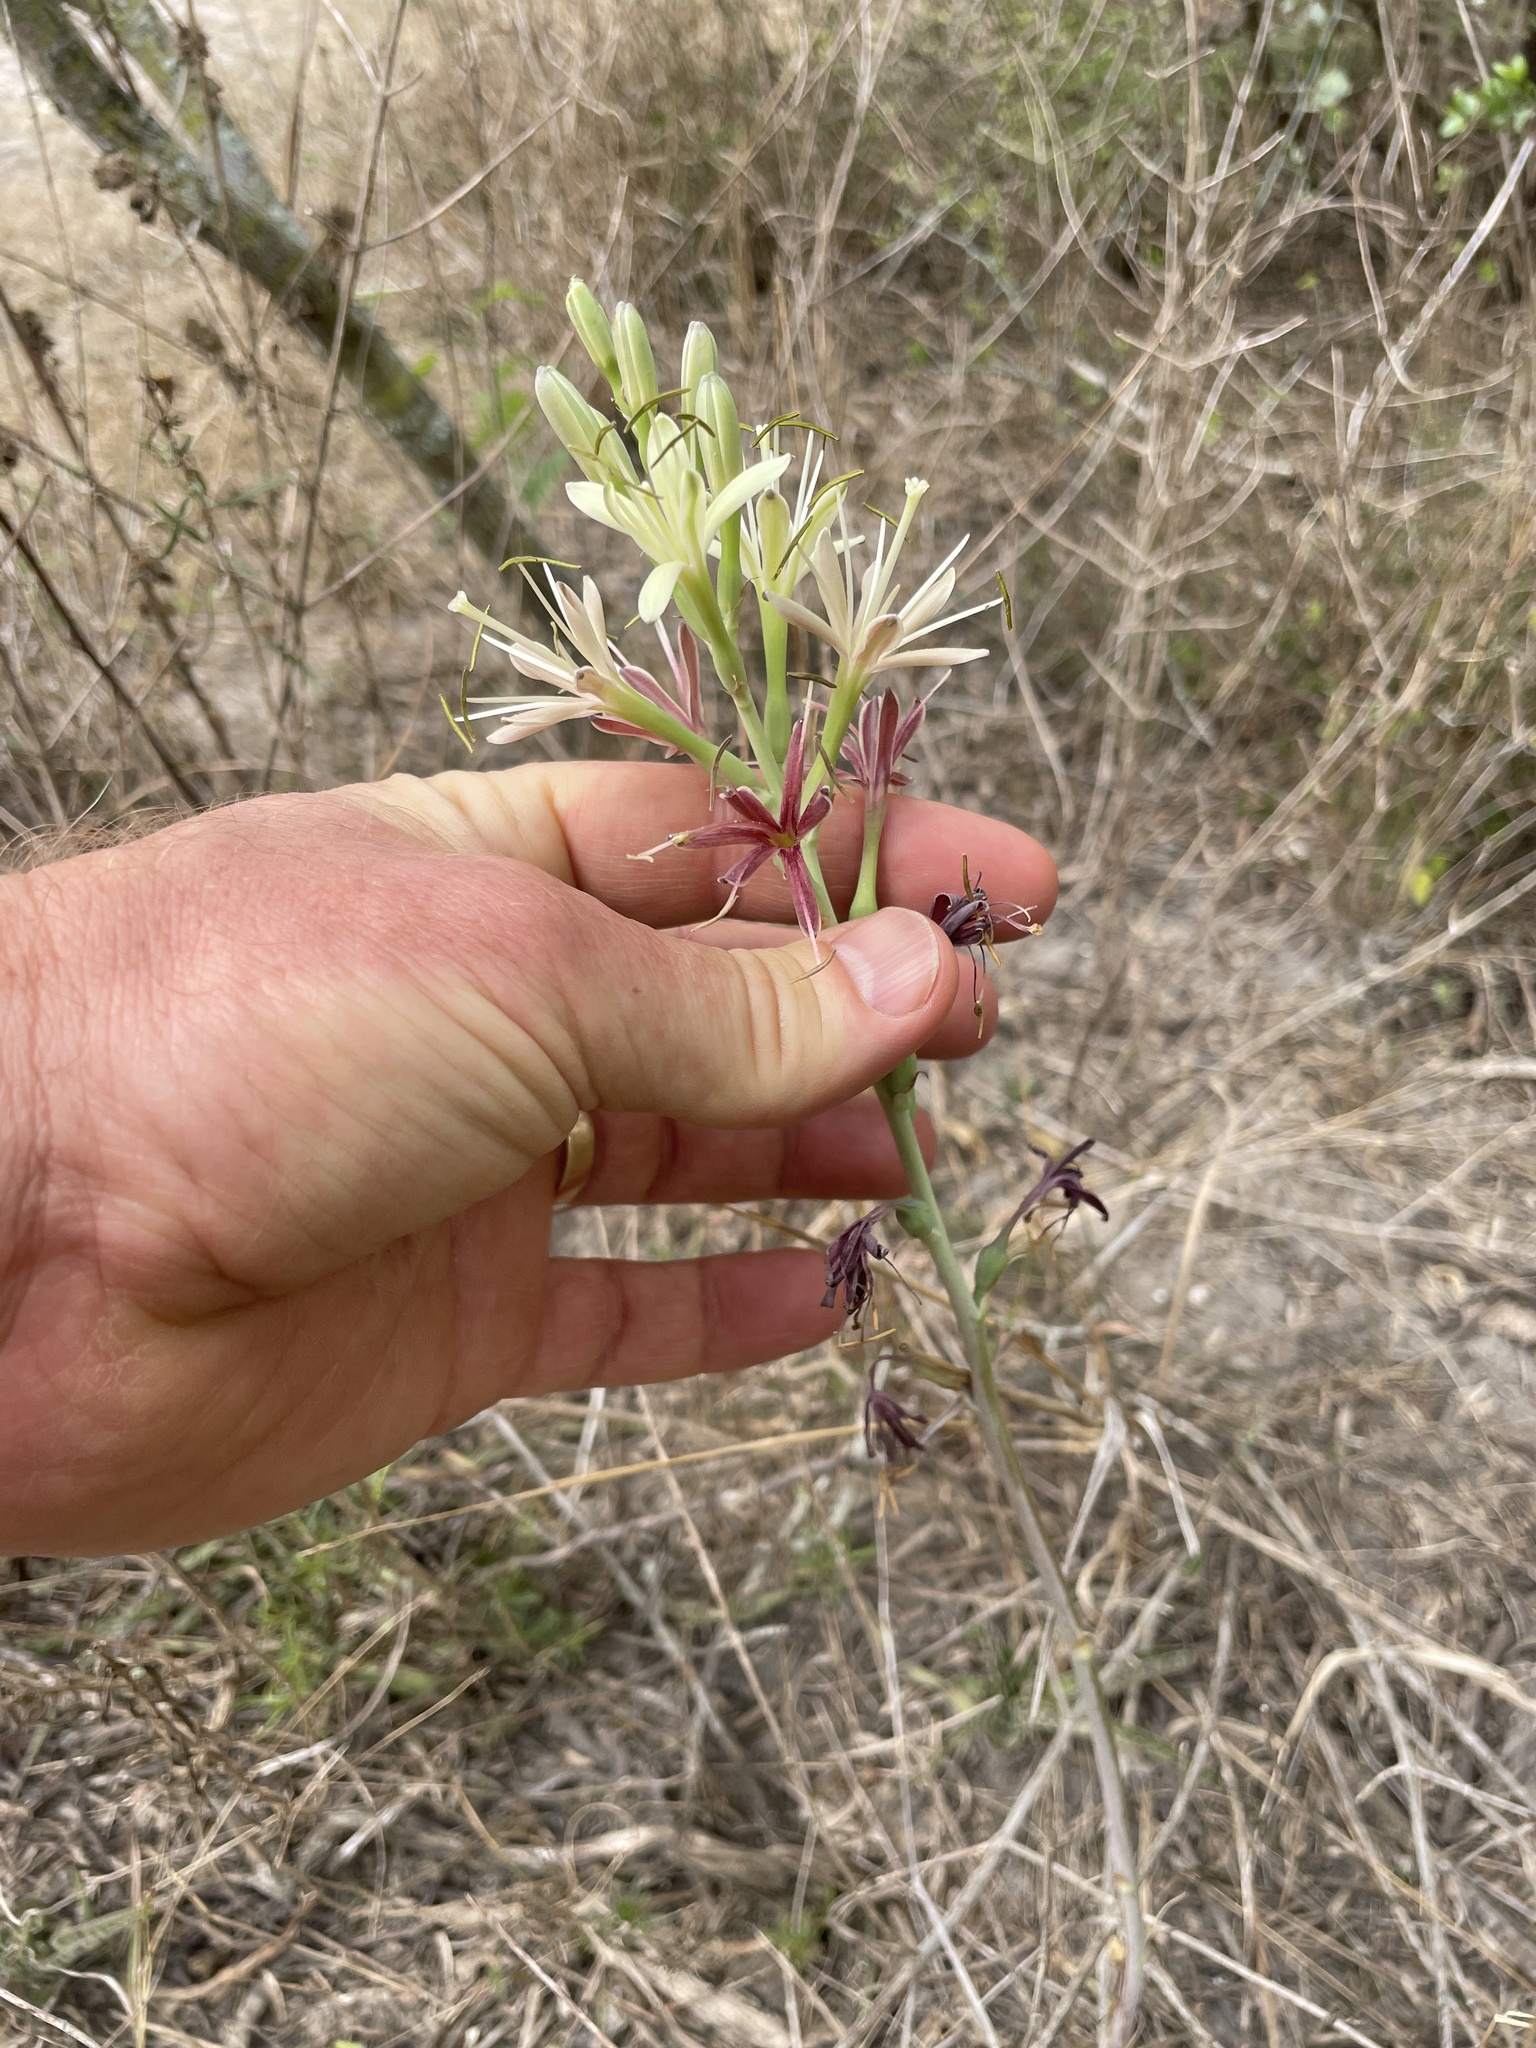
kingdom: Plantae
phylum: Tracheophyta
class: Liliopsida
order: Asparagales
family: Asparagaceae
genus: Agave
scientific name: Agave maculata
